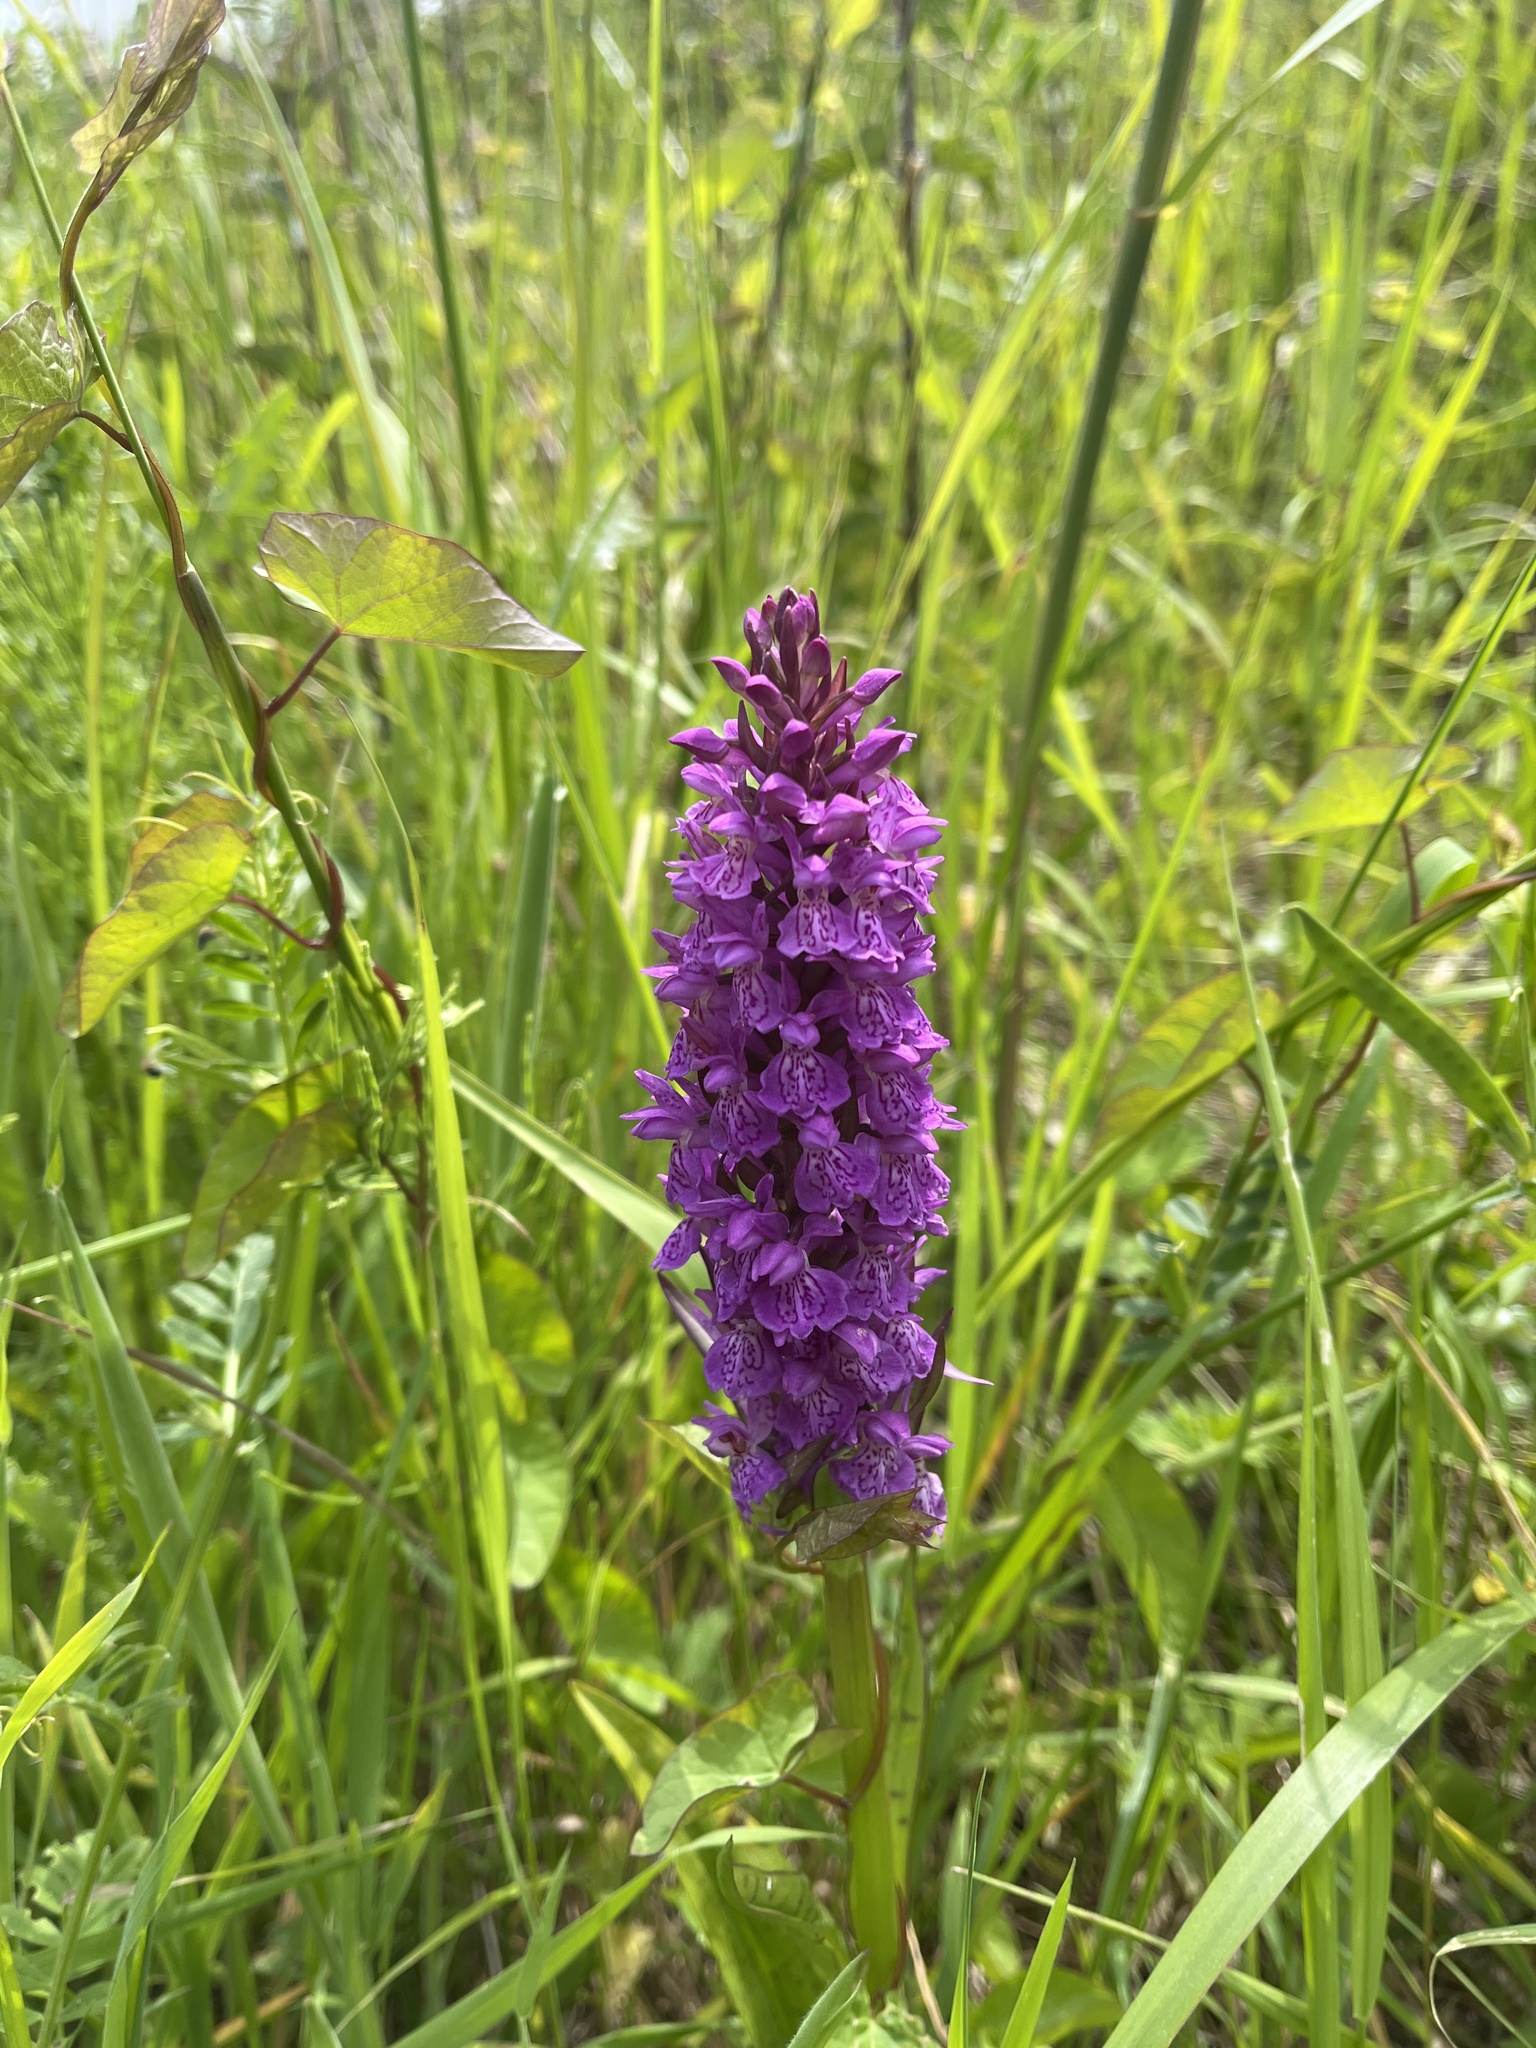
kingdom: Plantae
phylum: Tracheophyta
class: Liliopsida
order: Asparagales
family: Orchidaceae
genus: Dactylorhiza
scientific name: Dactylorhiza maculata
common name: Heath spotted-orchid
